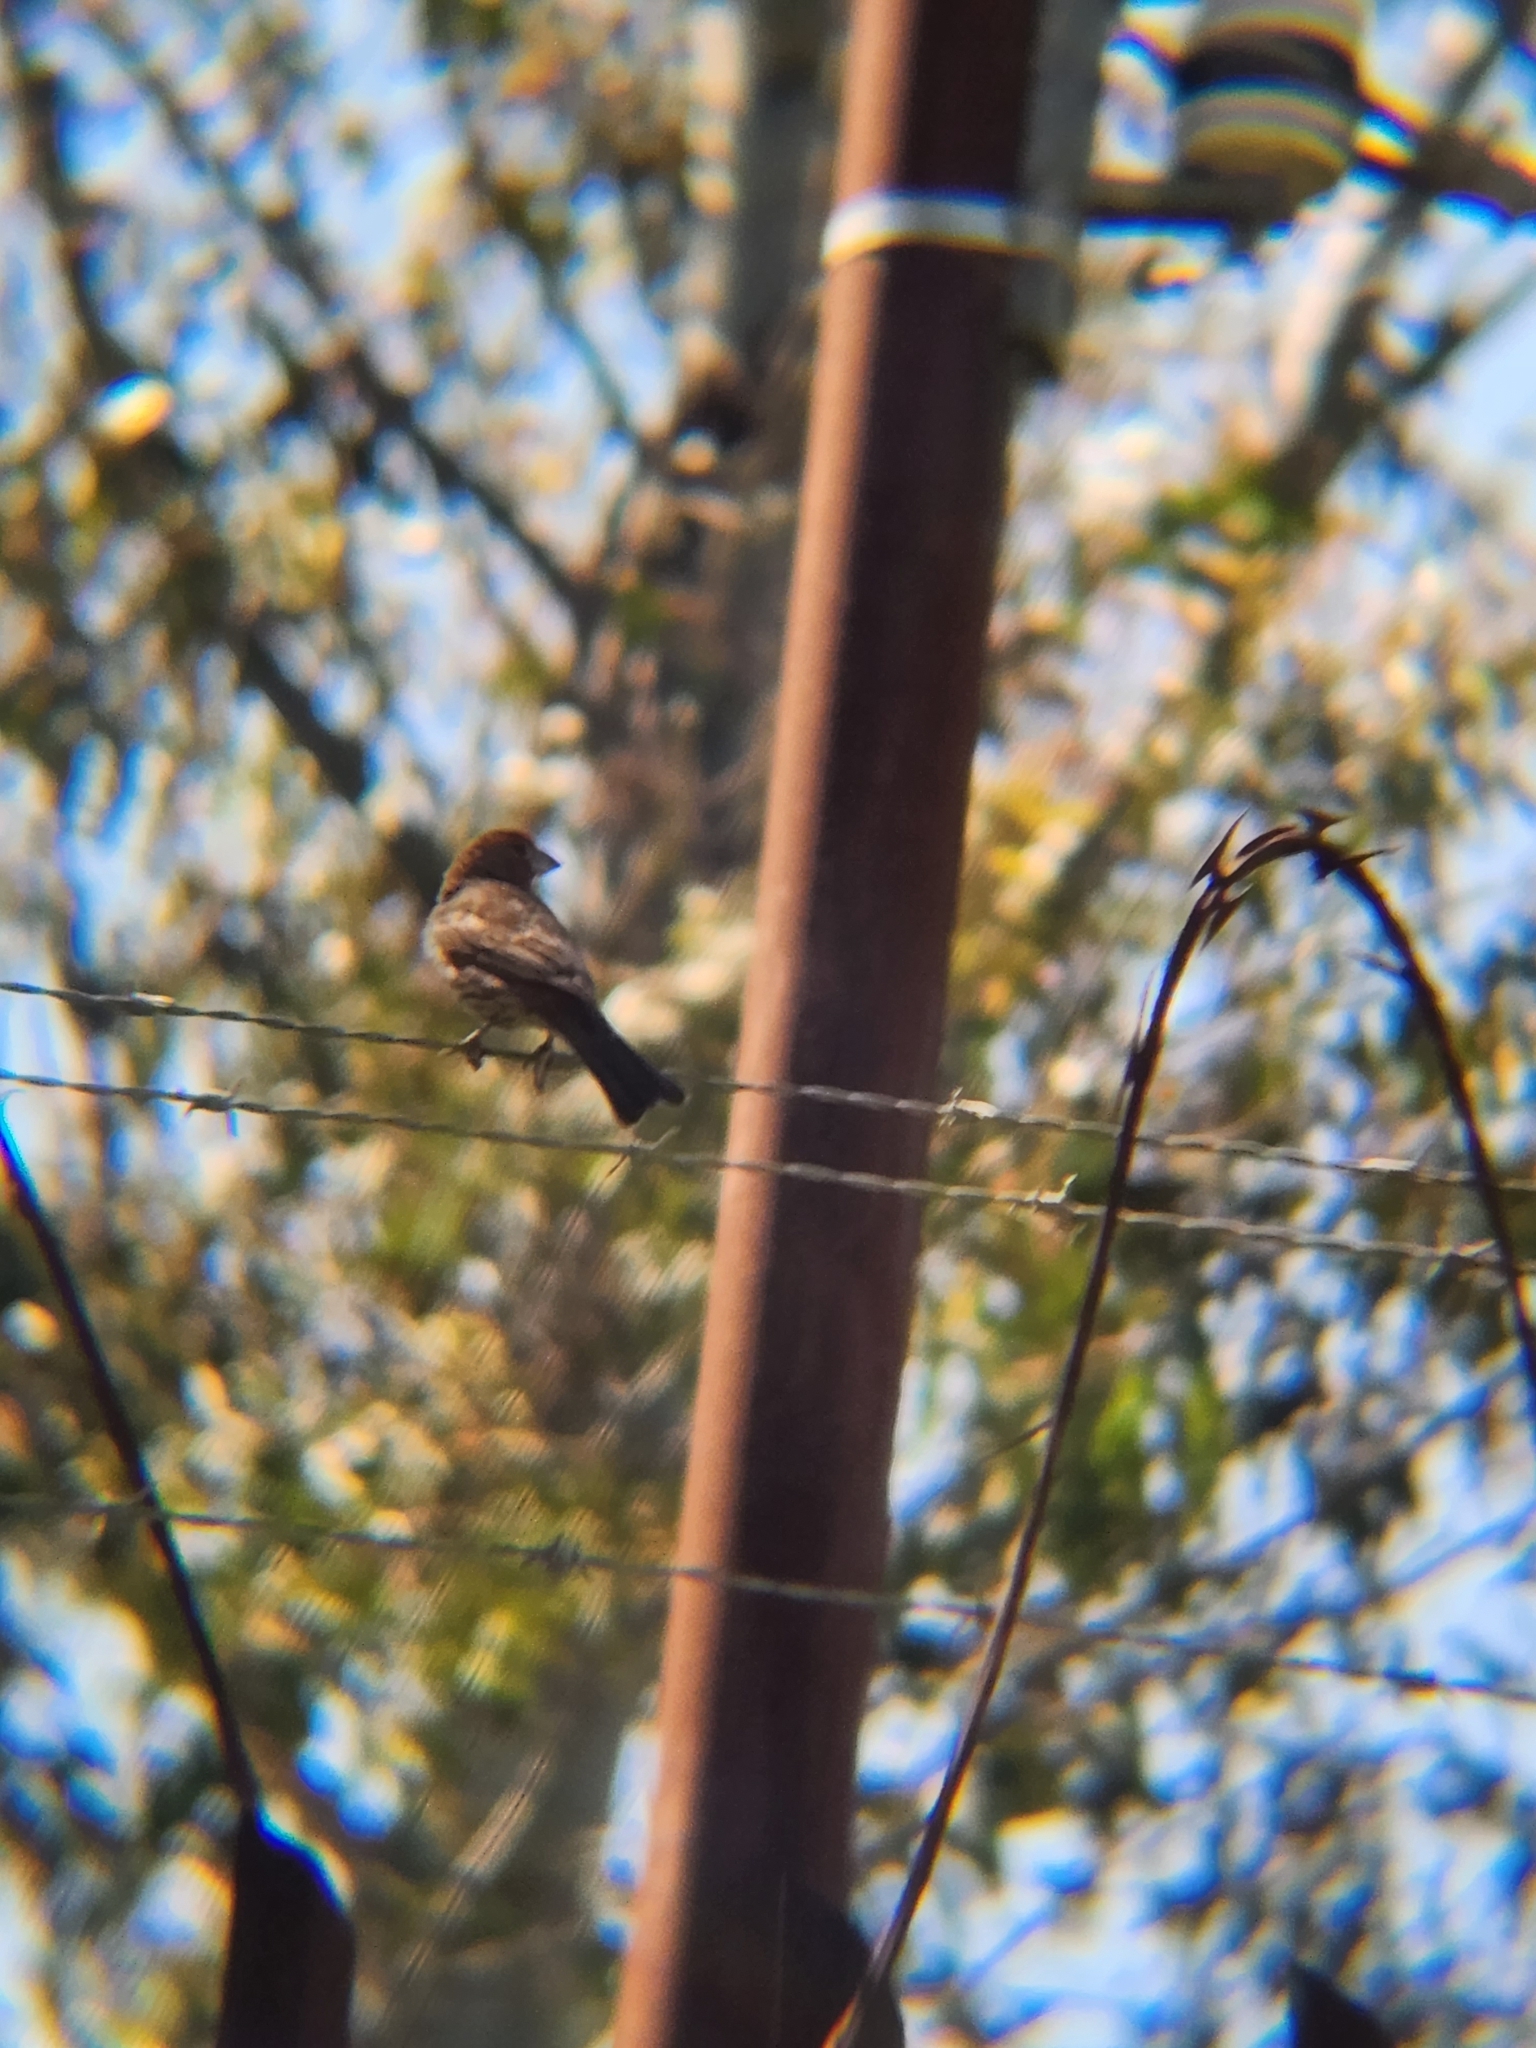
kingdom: Animalia
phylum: Chordata
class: Aves
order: Passeriformes
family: Fringillidae
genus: Haemorhous
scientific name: Haemorhous mexicanus
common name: House finch
